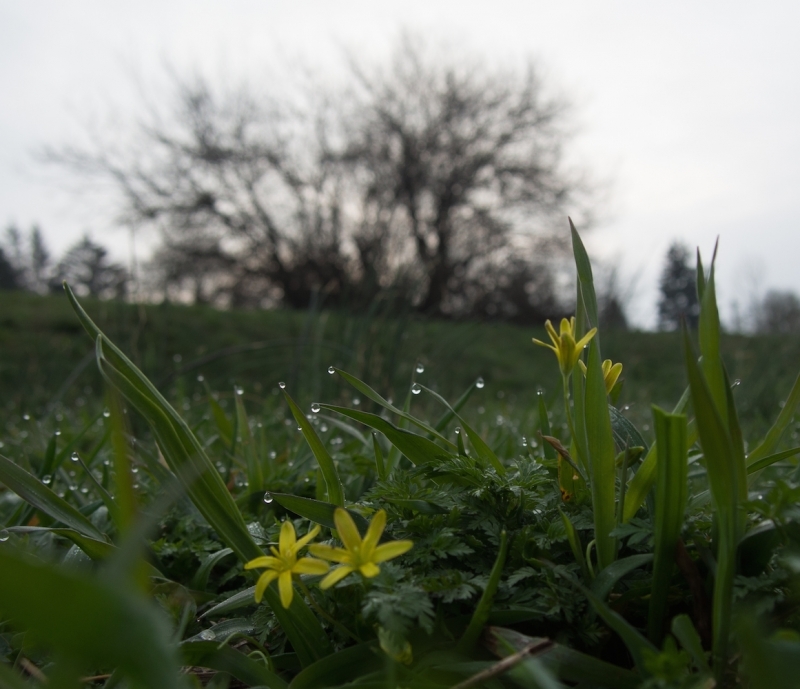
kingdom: Plantae
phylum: Tracheophyta
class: Liliopsida
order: Liliales
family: Liliaceae
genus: Gagea
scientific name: Gagea lutea
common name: Yellow star-of-bethlehem
